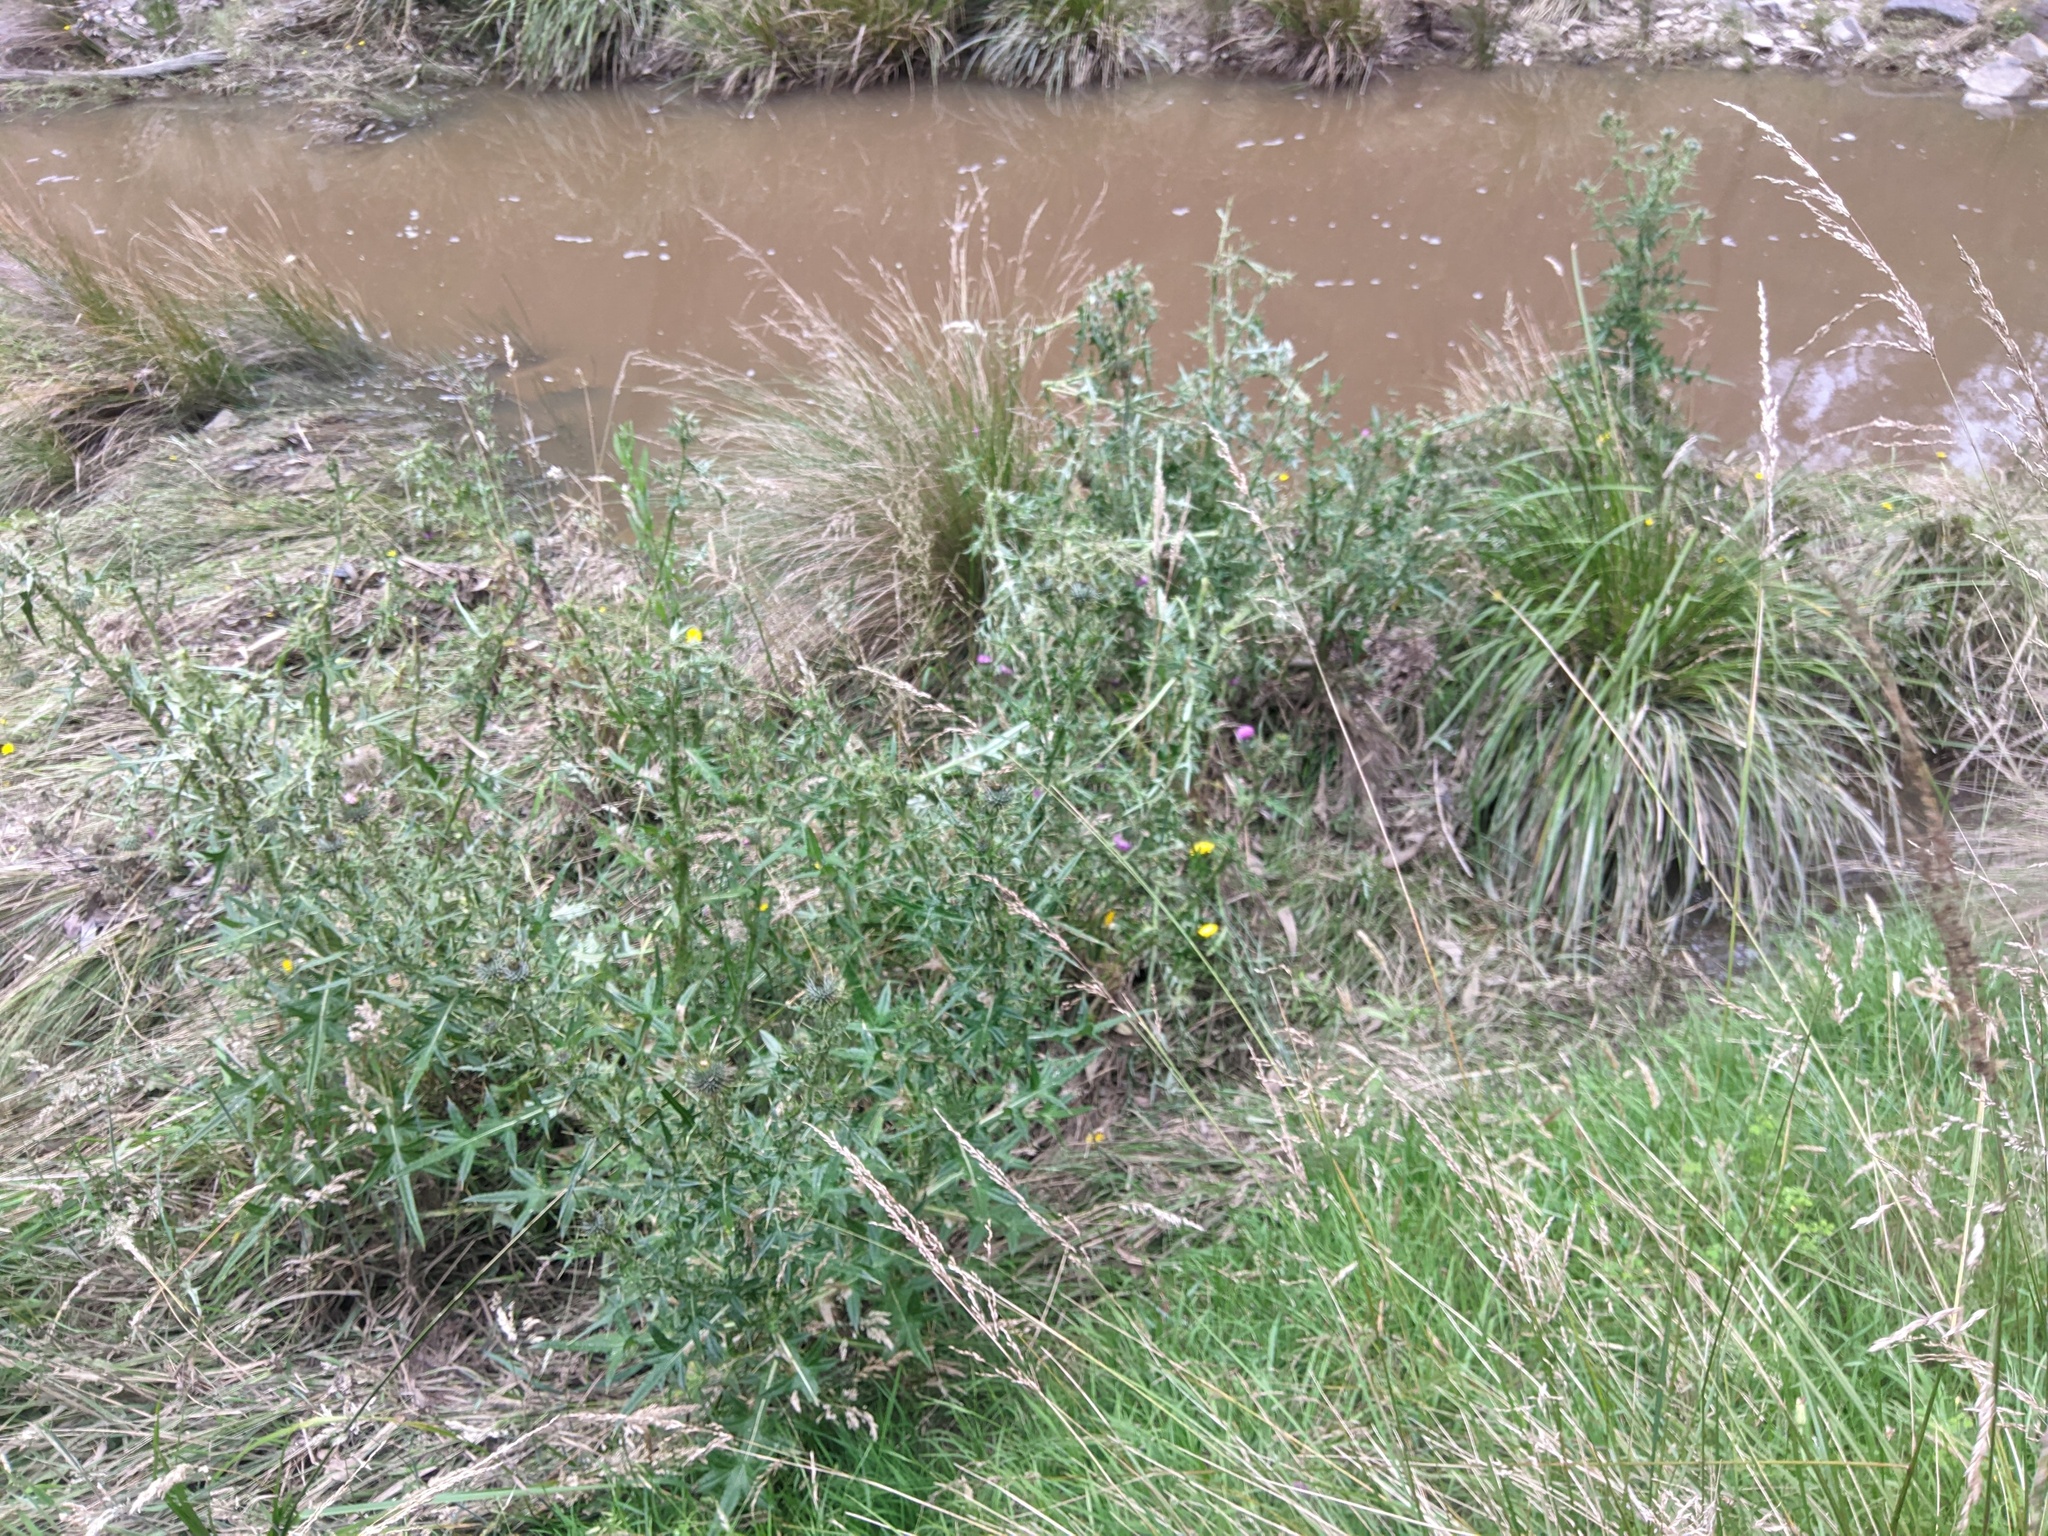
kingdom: Plantae
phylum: Tracheophyta
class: Magnoliopsida
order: Asterales
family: Asteraceae
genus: Cirsium
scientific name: Cirsium vulgare
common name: Bull thistle
